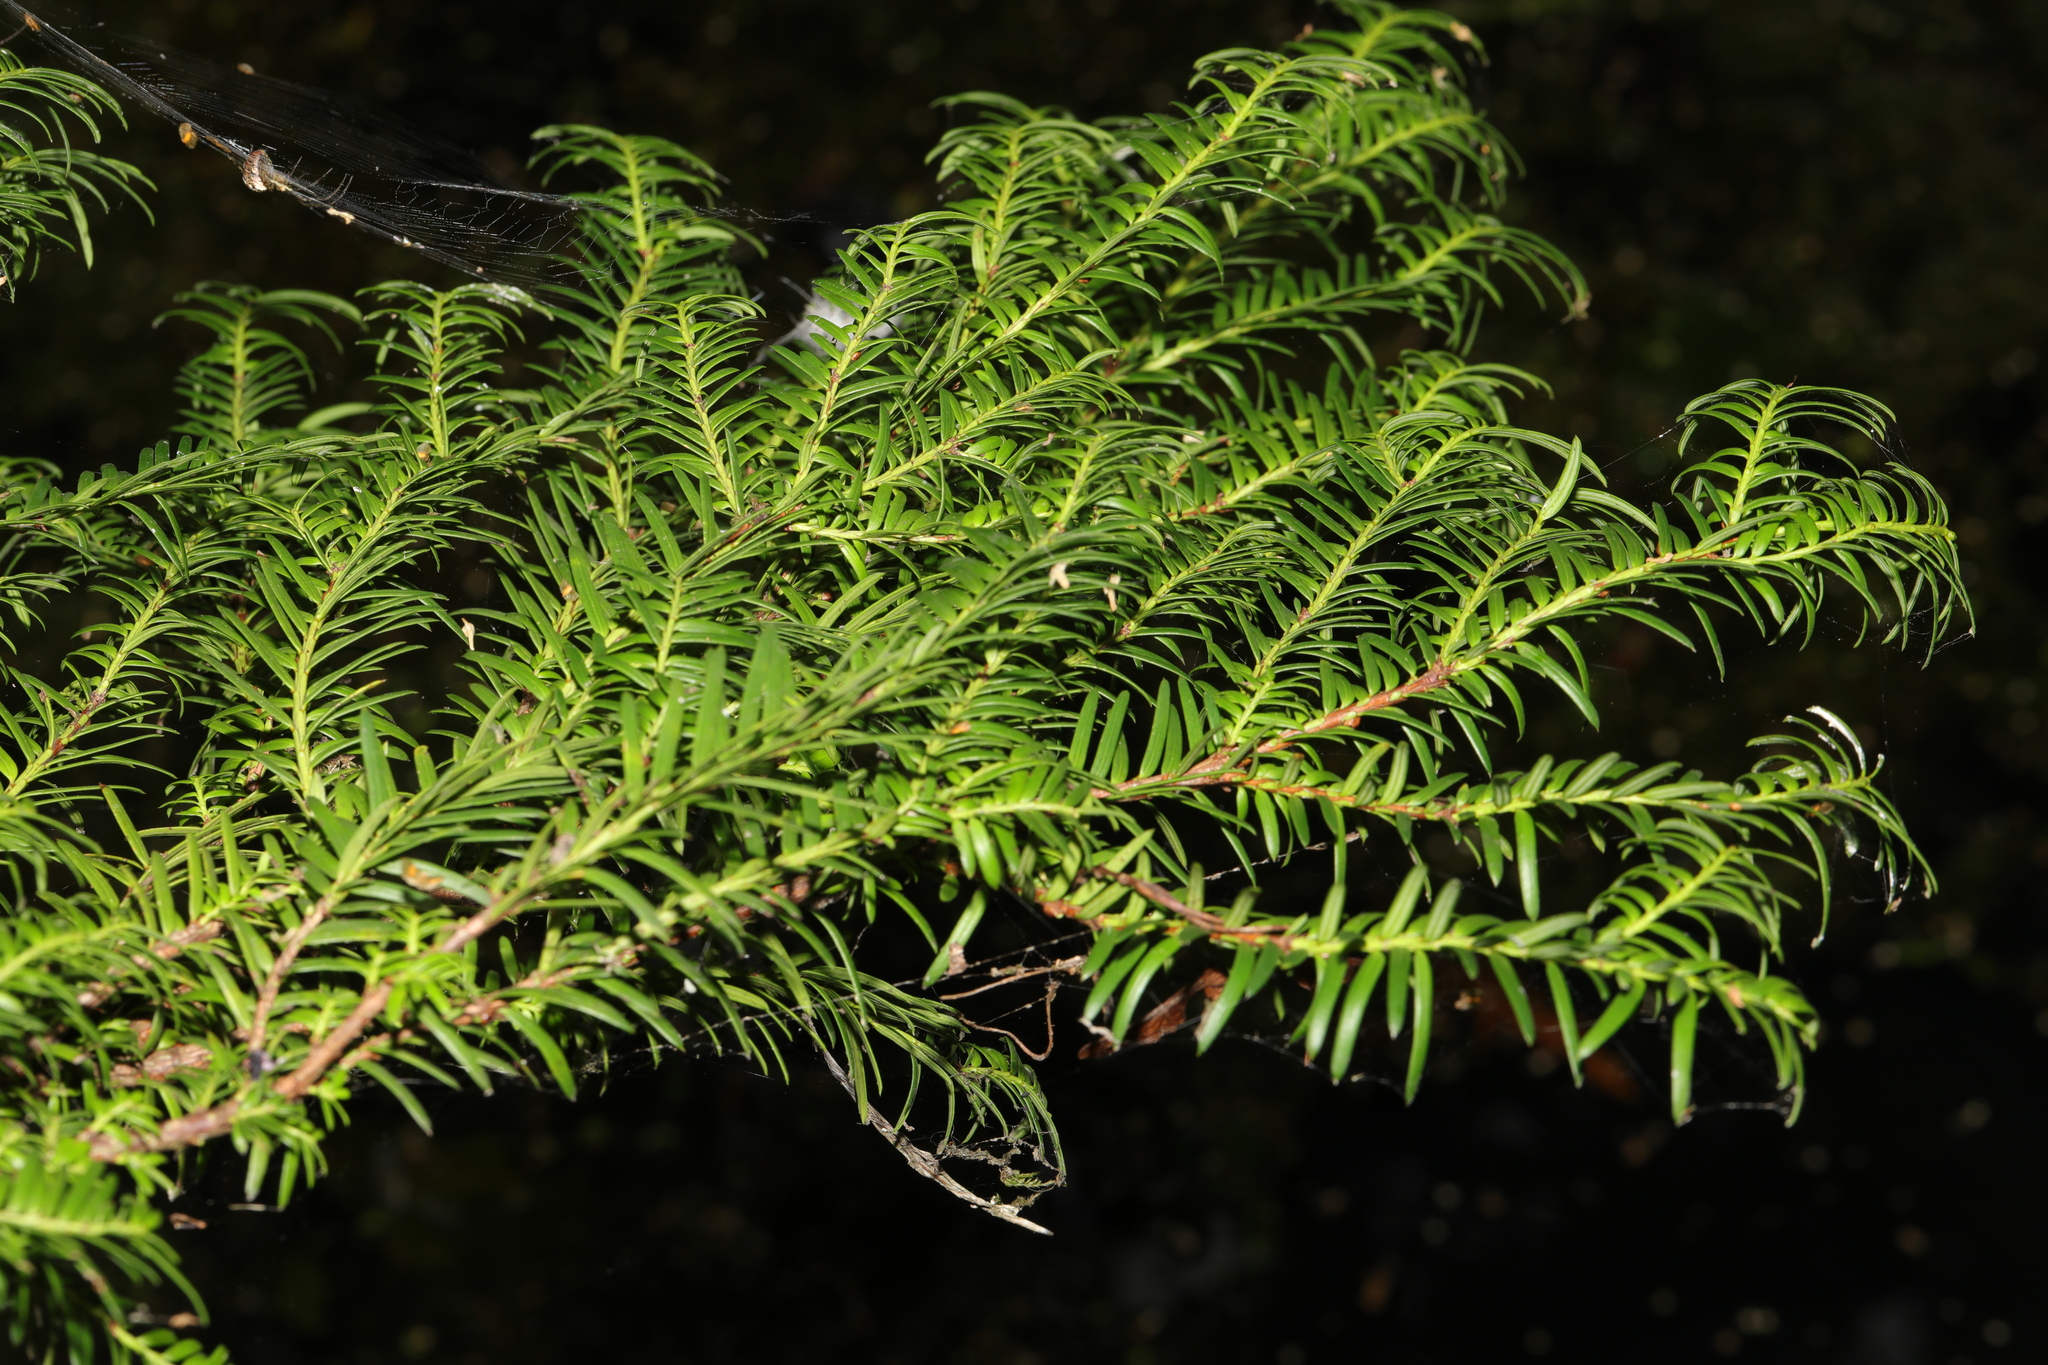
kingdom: Plantae
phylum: Tracheophyta
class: Pinopsida
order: Pinales
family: Taxaceae
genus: Taxus
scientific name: Taxus baccata
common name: Yew
